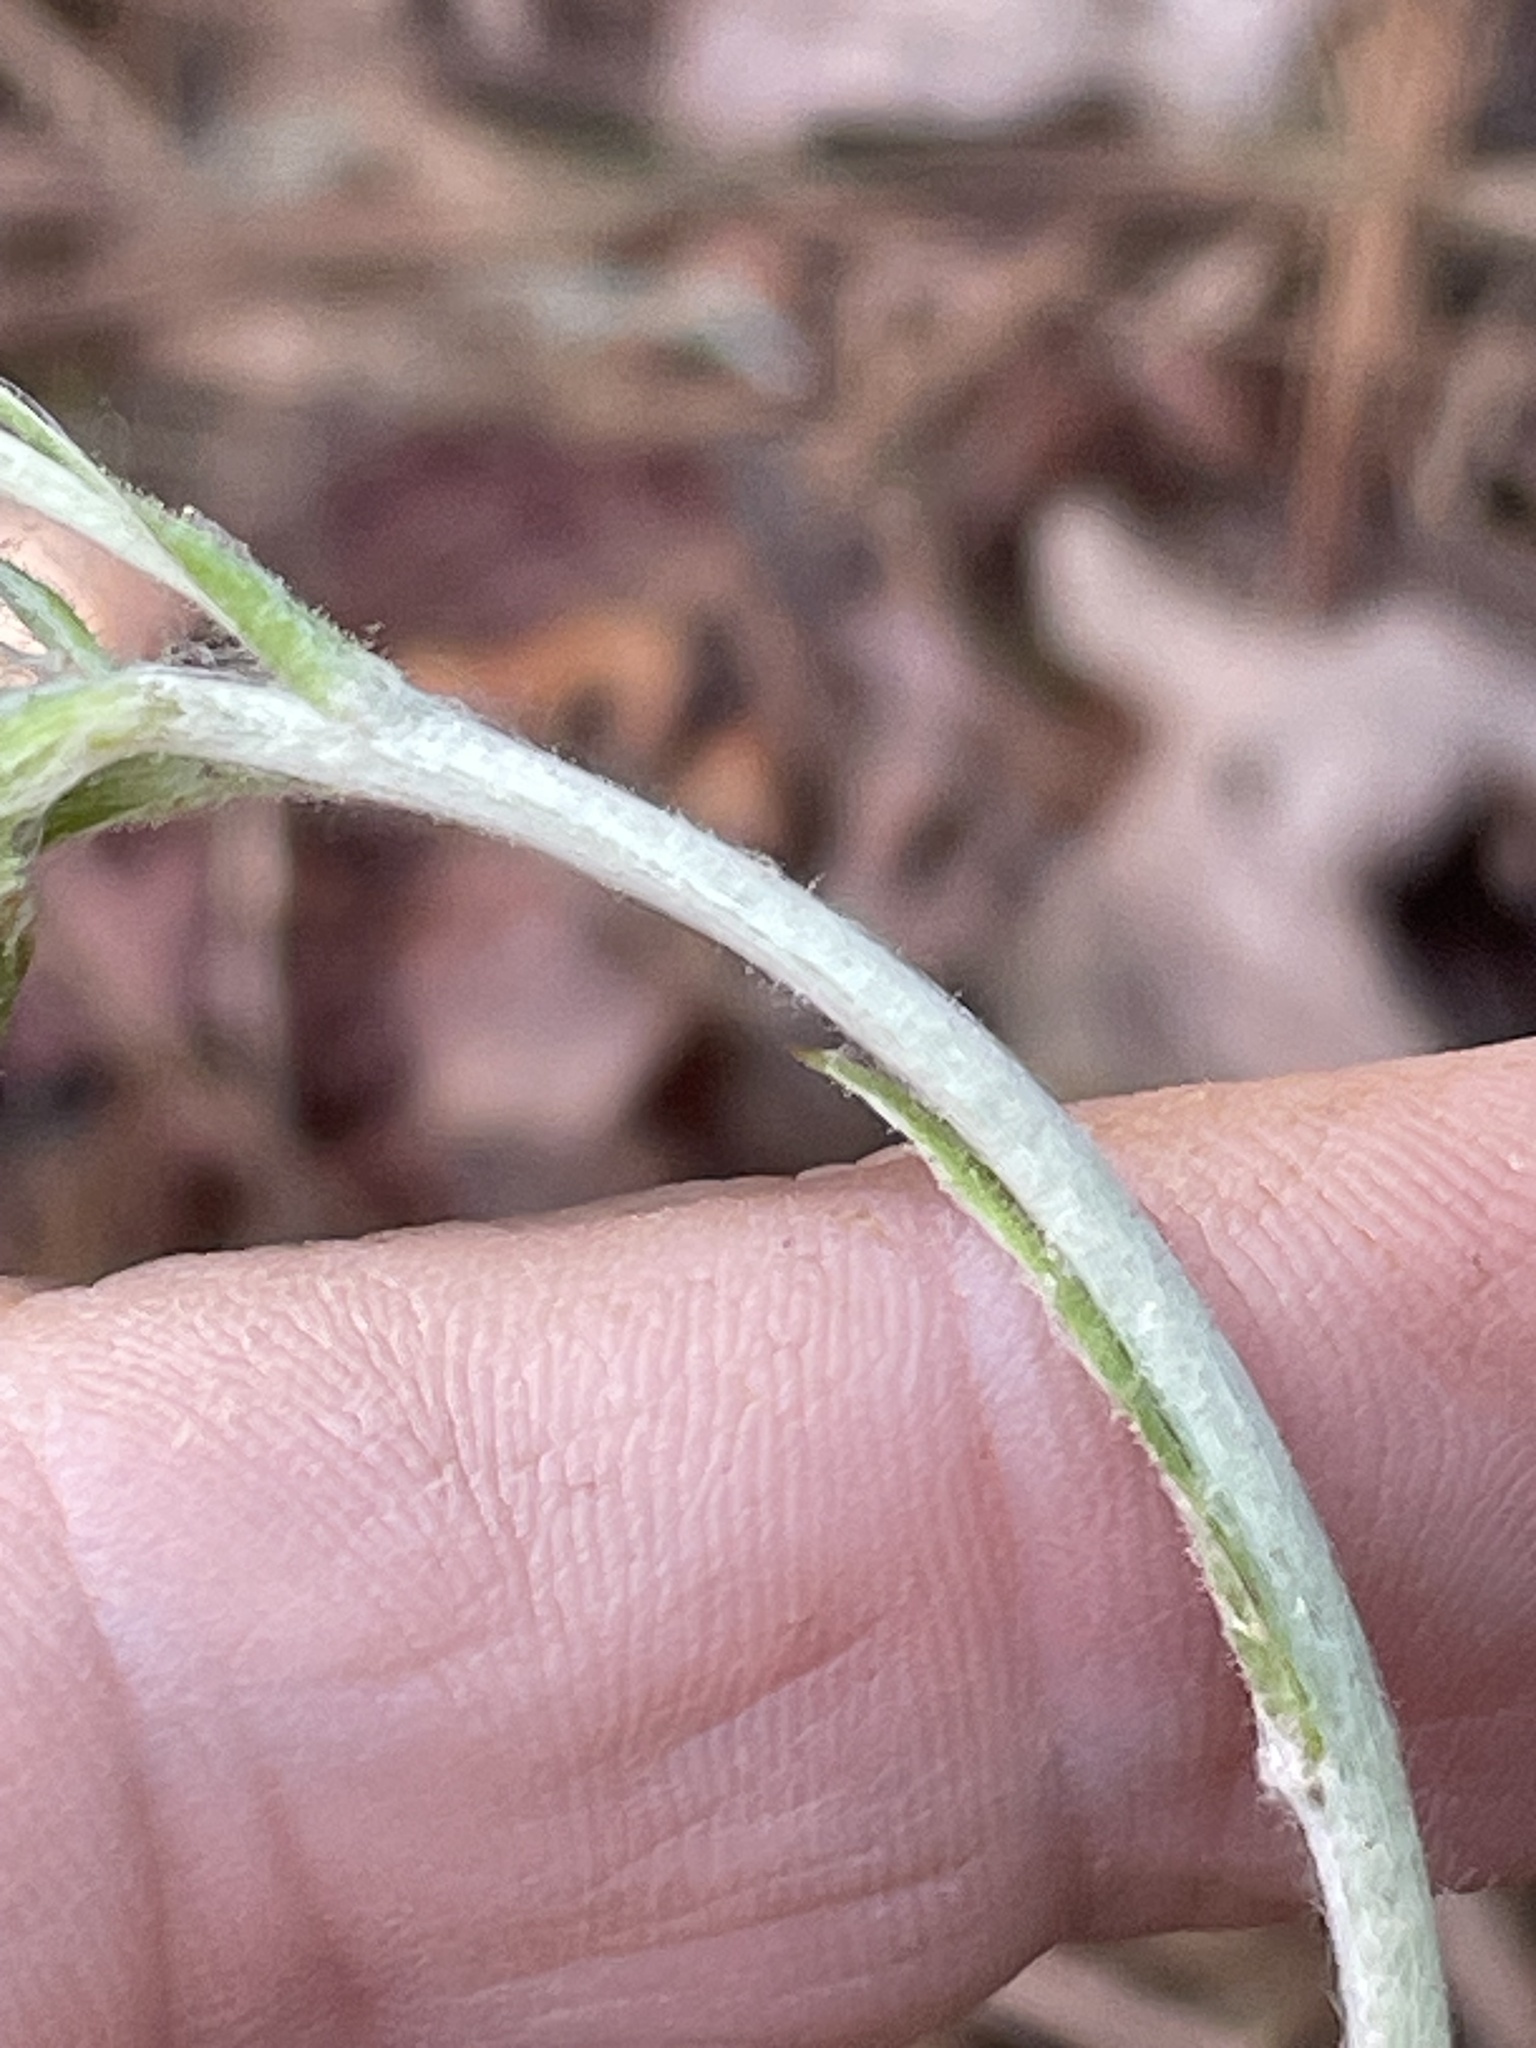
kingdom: Plantae
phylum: Tracheophyta
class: Magnoliopsida
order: Asterales
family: Asteraceae
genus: Antennaria
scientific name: Antennaria parlinii
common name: Parlin's pussytoes
